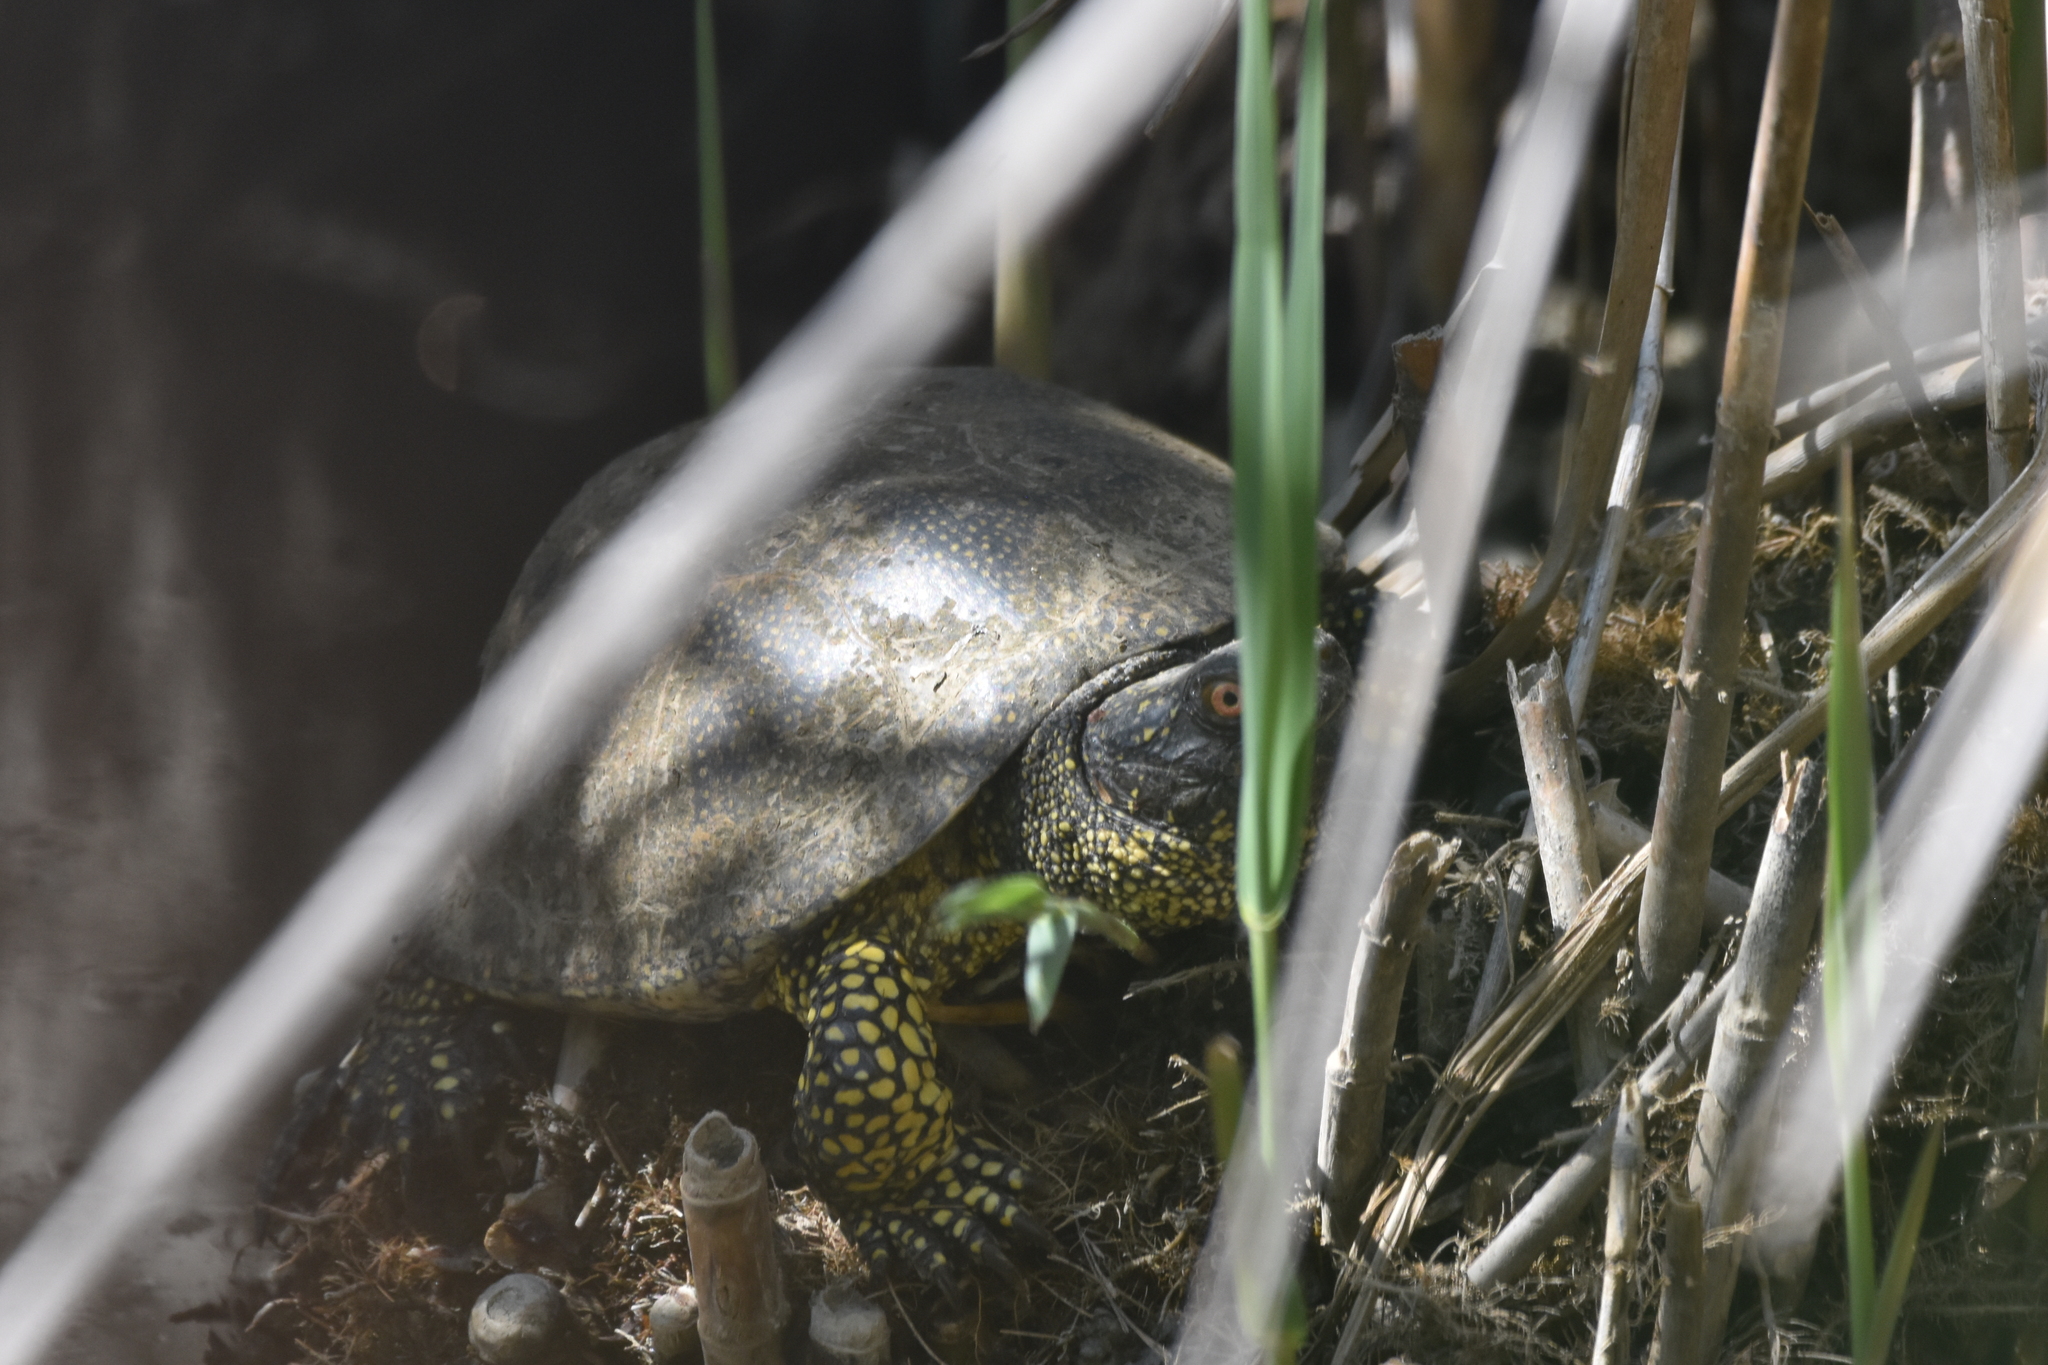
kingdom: Animalia
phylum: Chordata
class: Testudines
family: Emydidae
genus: Emys
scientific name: Emys orbicularis
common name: European pond turtle
